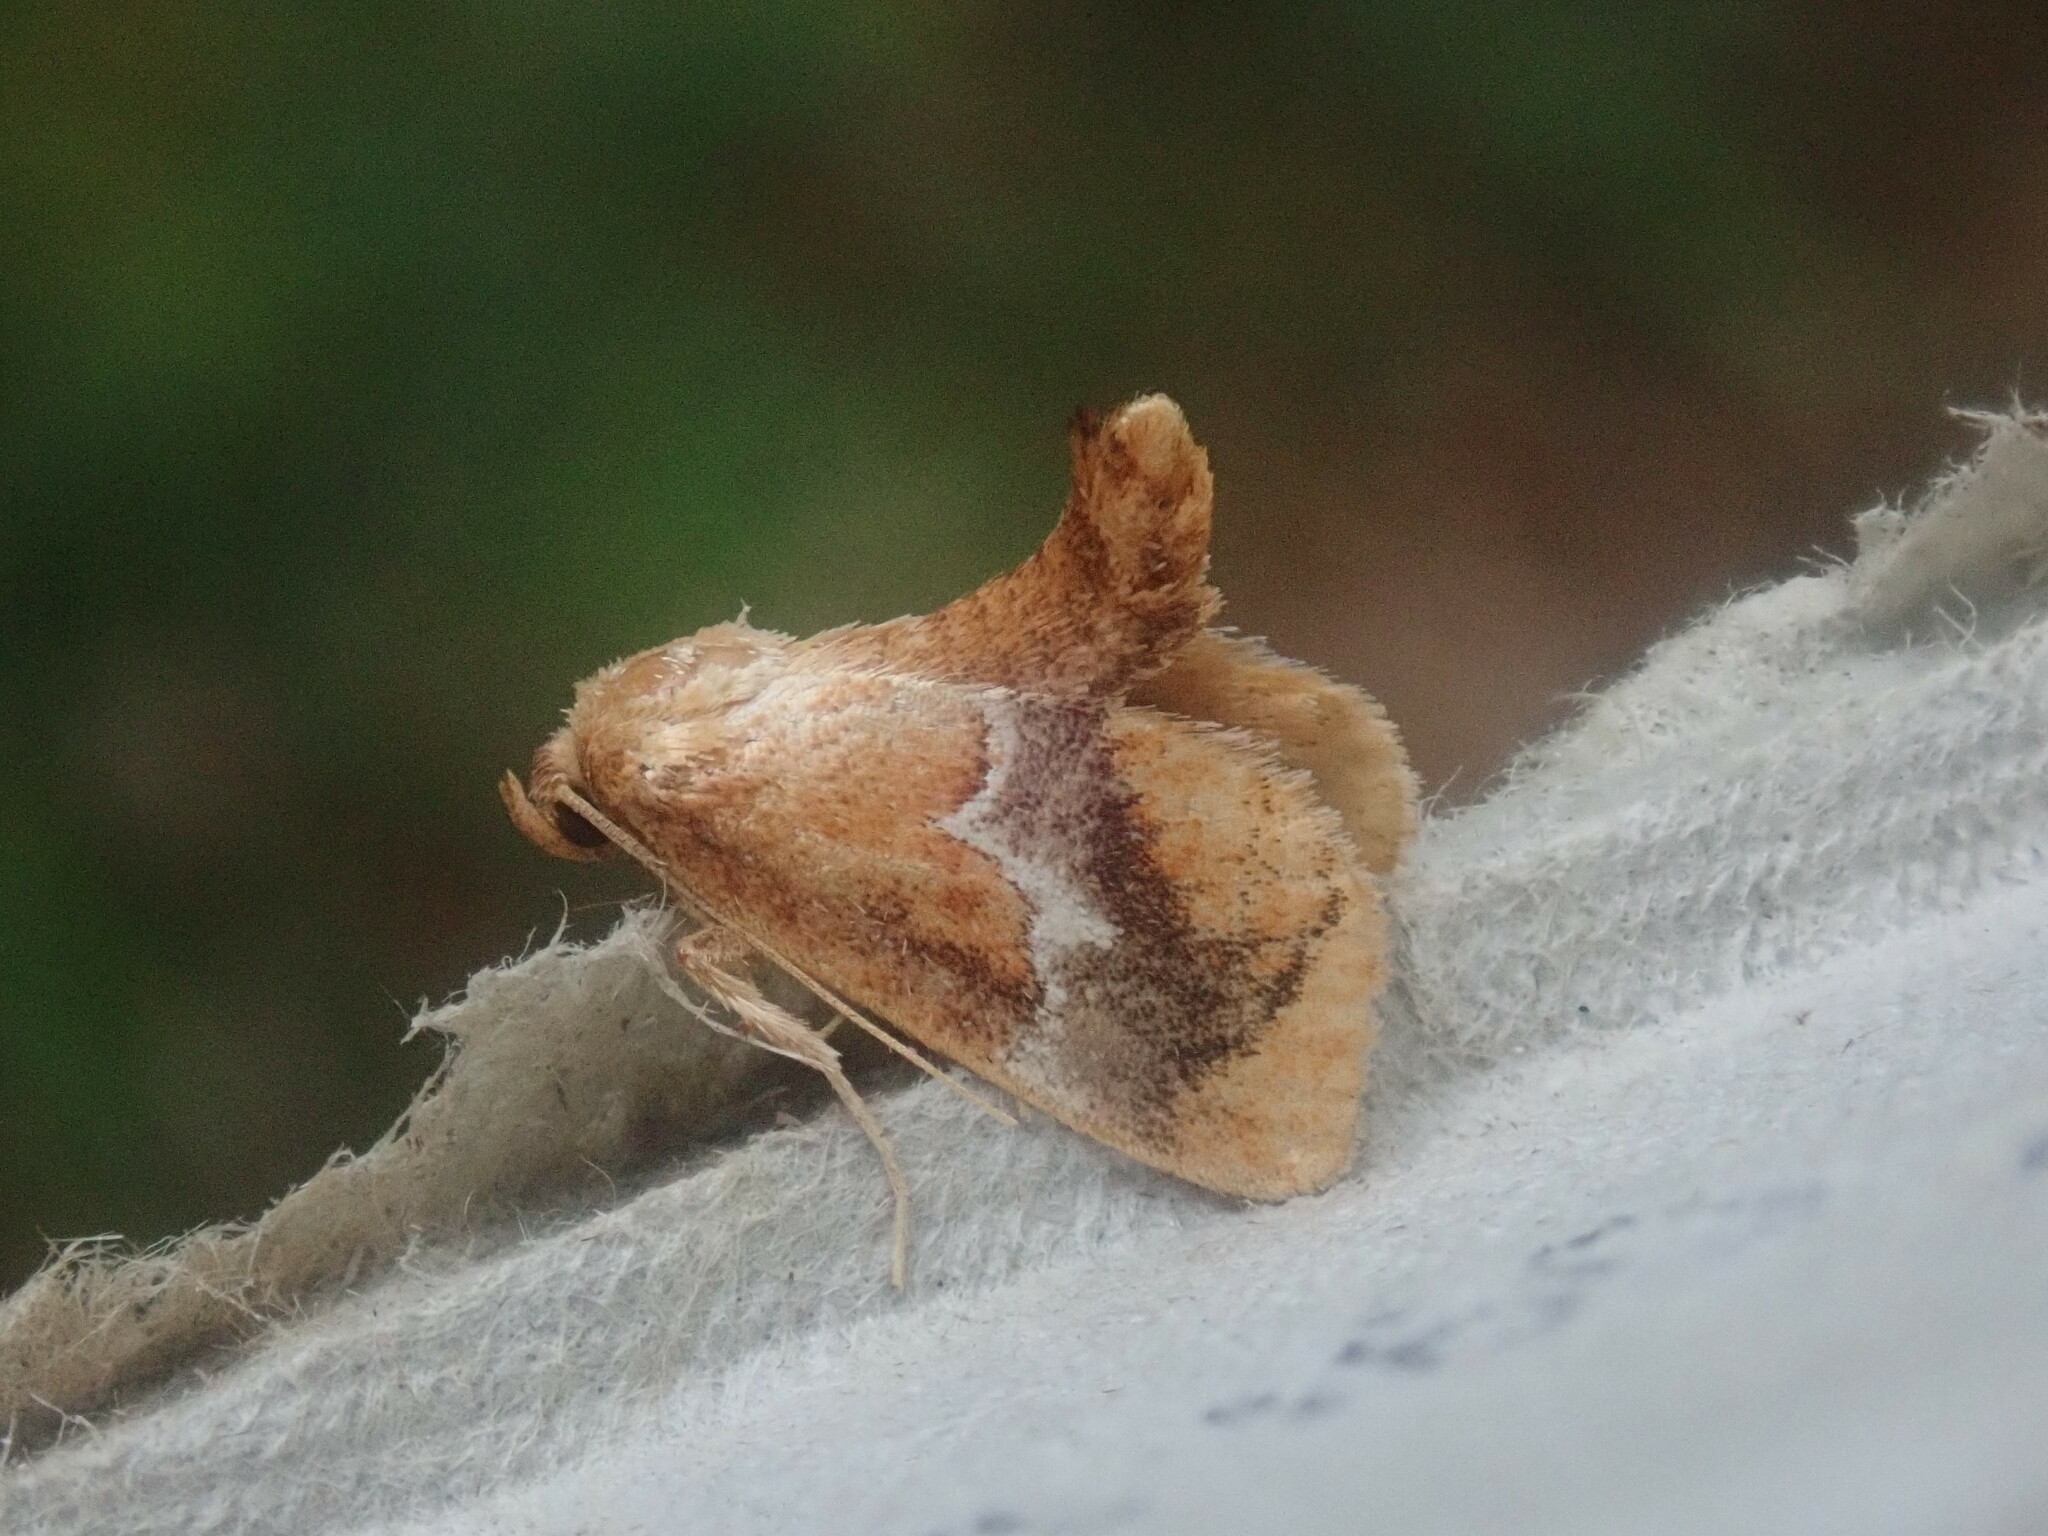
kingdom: Animalia
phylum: Arthropoda
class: Insecta
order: Lepidoptera
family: Limacodidae
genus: Lithacodes
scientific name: Lithacodes fasciola
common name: Yellow-shouldered slug moth
